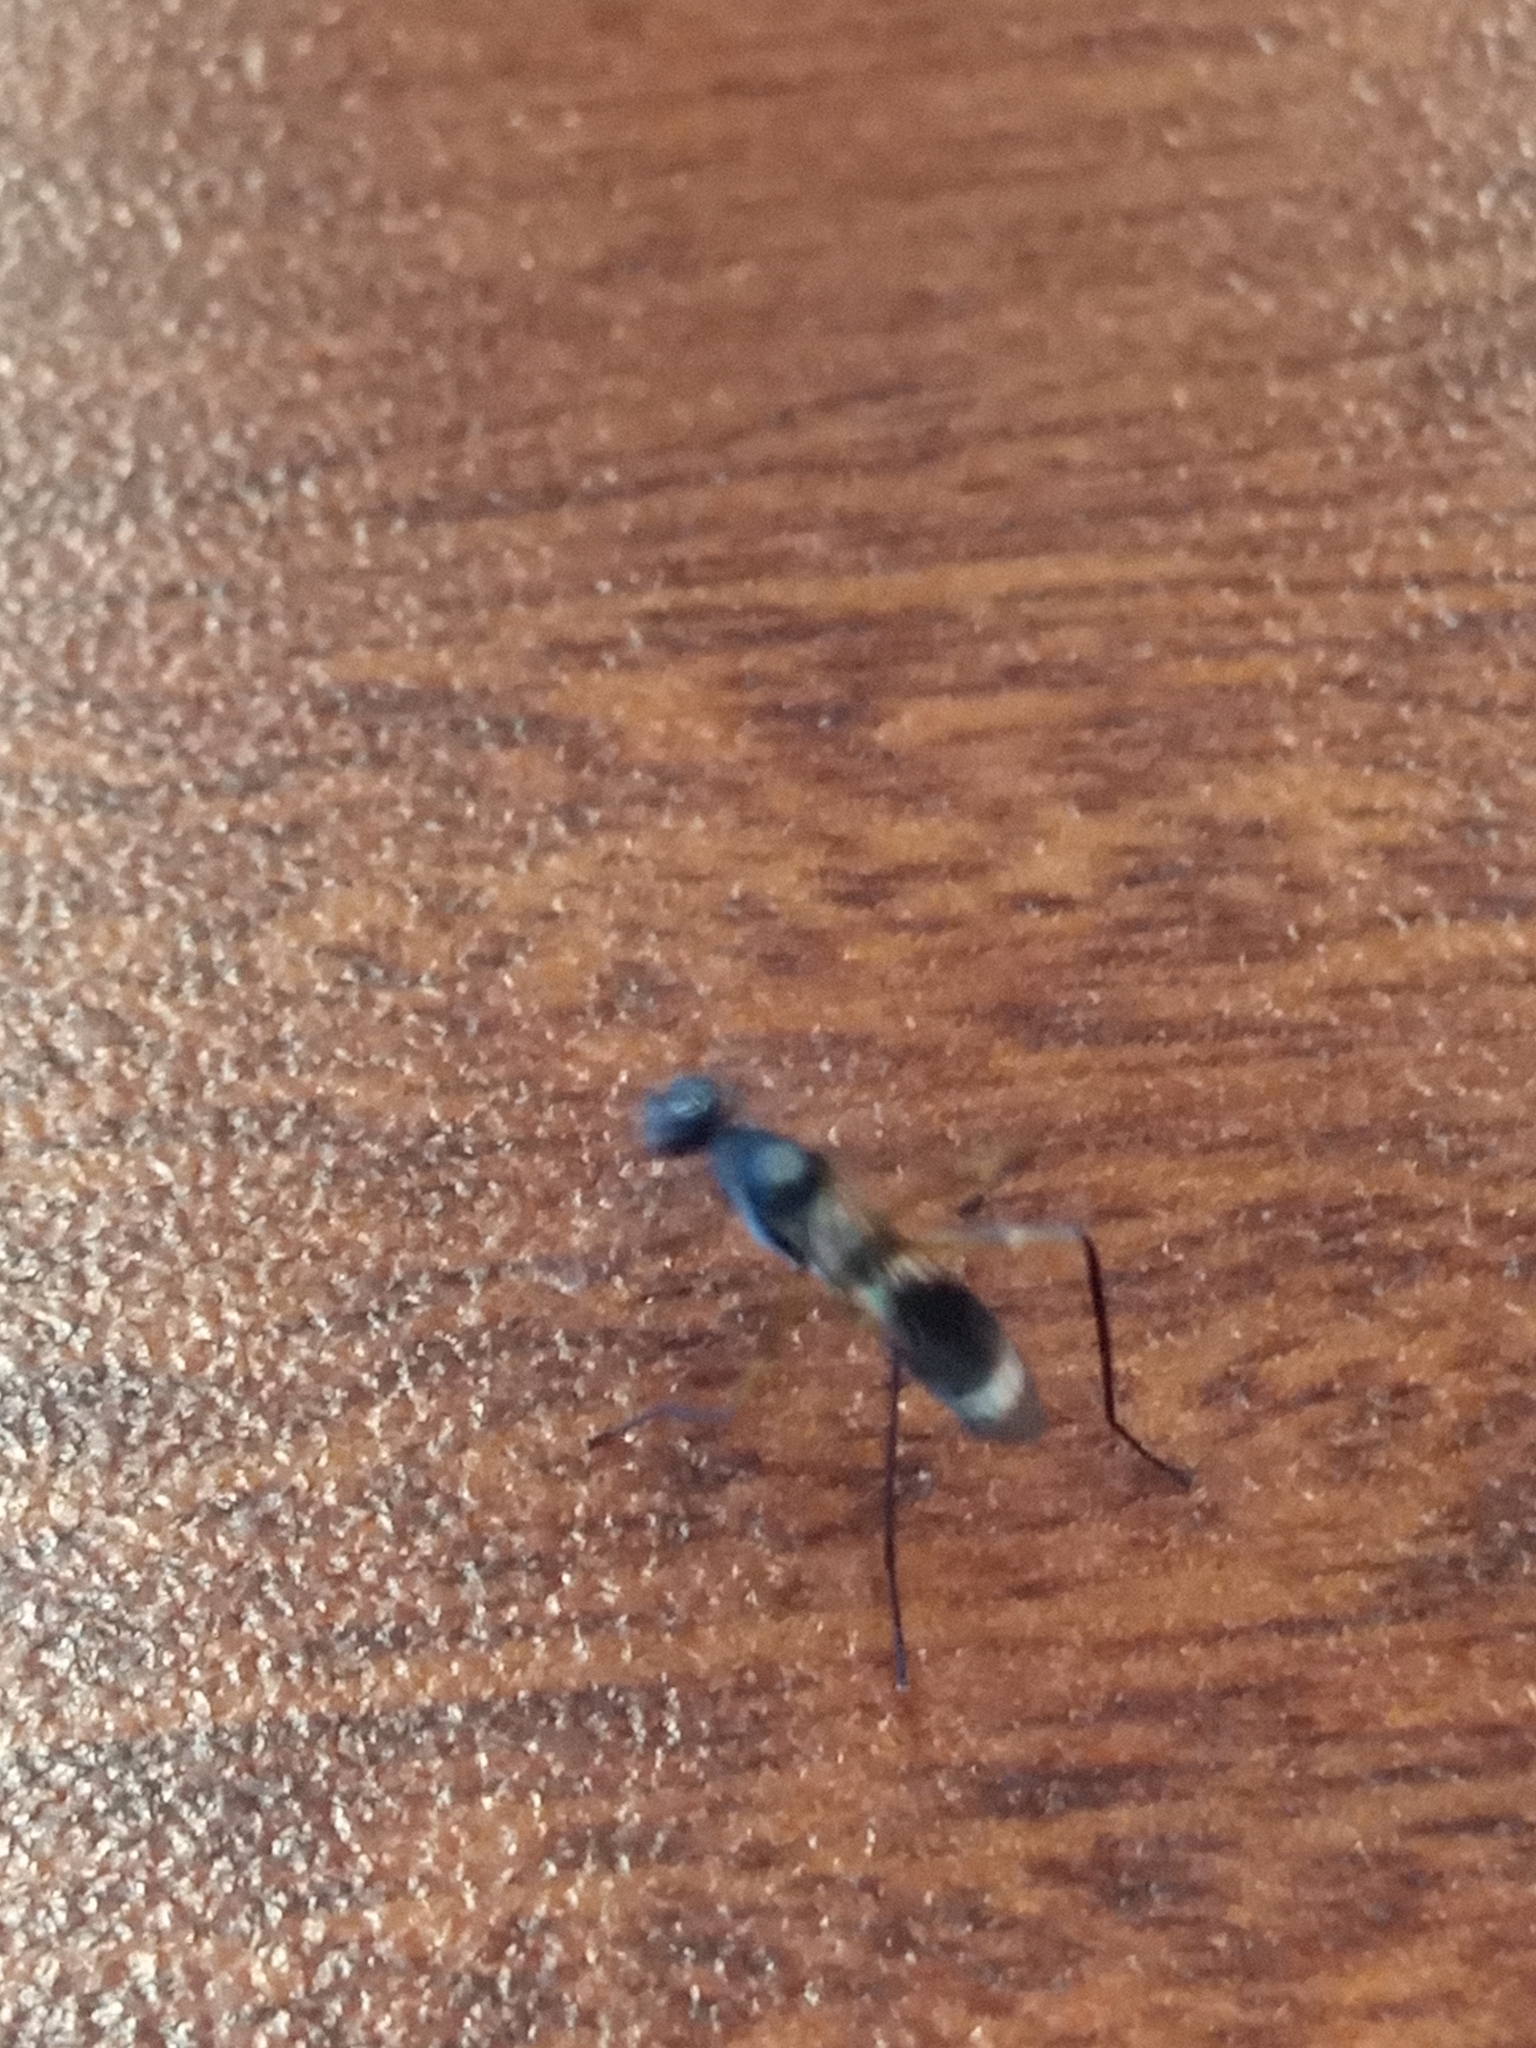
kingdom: Animalia
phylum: Arthropoda
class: Insecta
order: Diptera
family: Micropezidae
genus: Taeniaptera
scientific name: Taeniaptera trivittata
